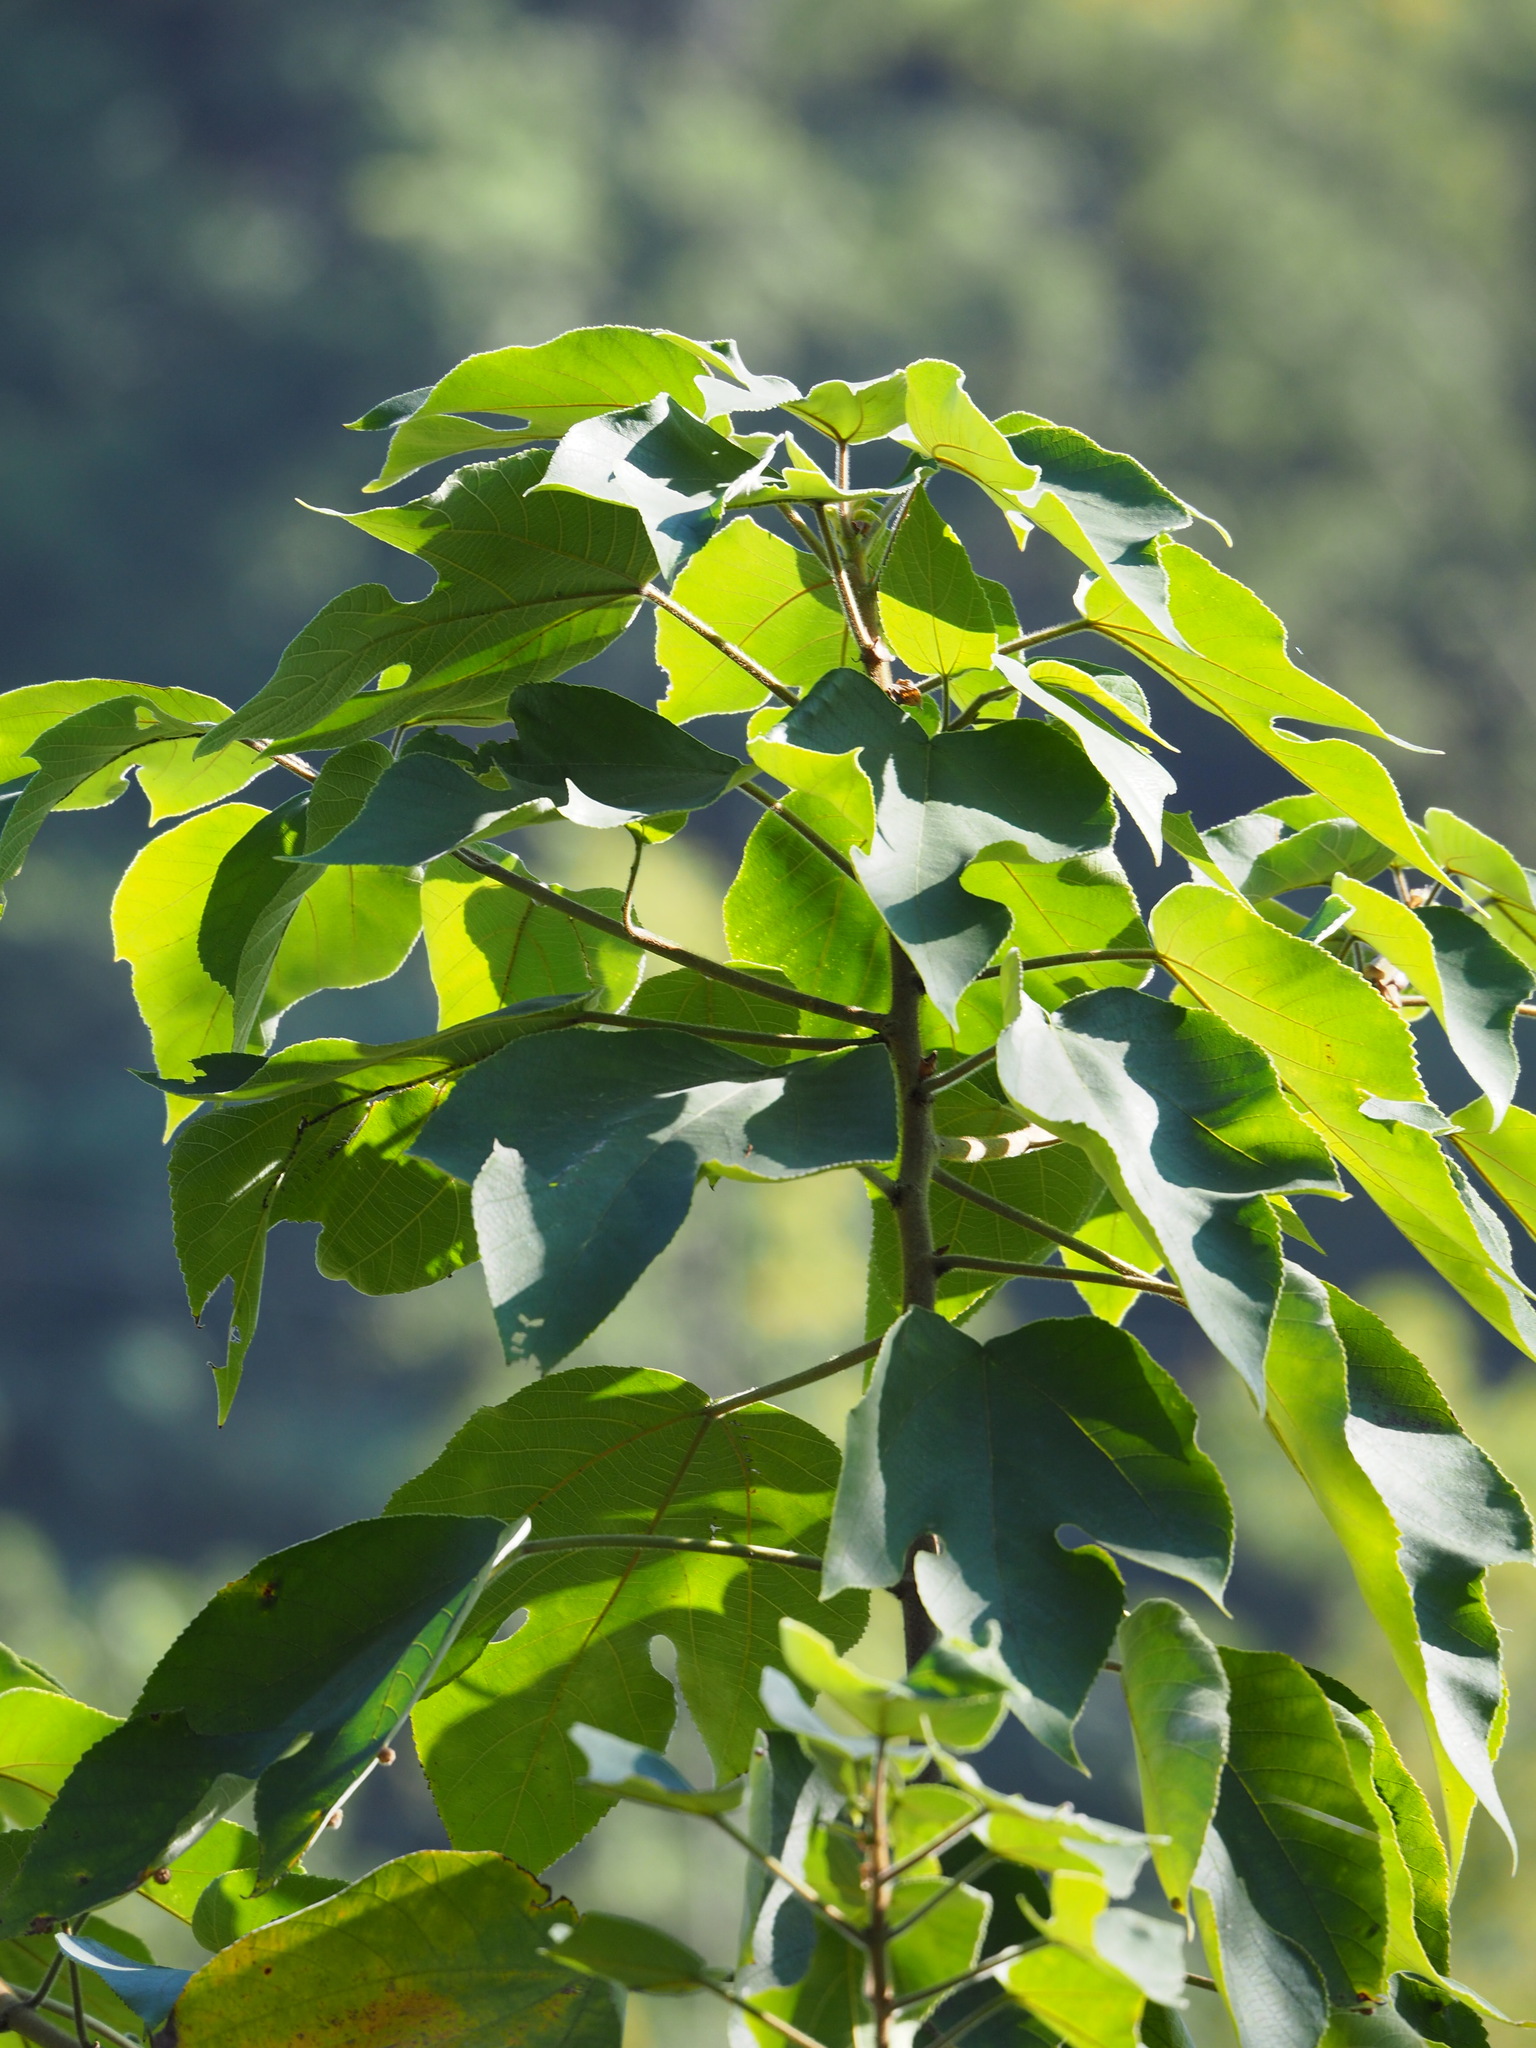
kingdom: Plantae
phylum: Tracheophyta
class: Magnoliopsida
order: Rosales
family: Moraceae
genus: Broussonetia
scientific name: Broussonetia papyrifera
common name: Paper mulberry
